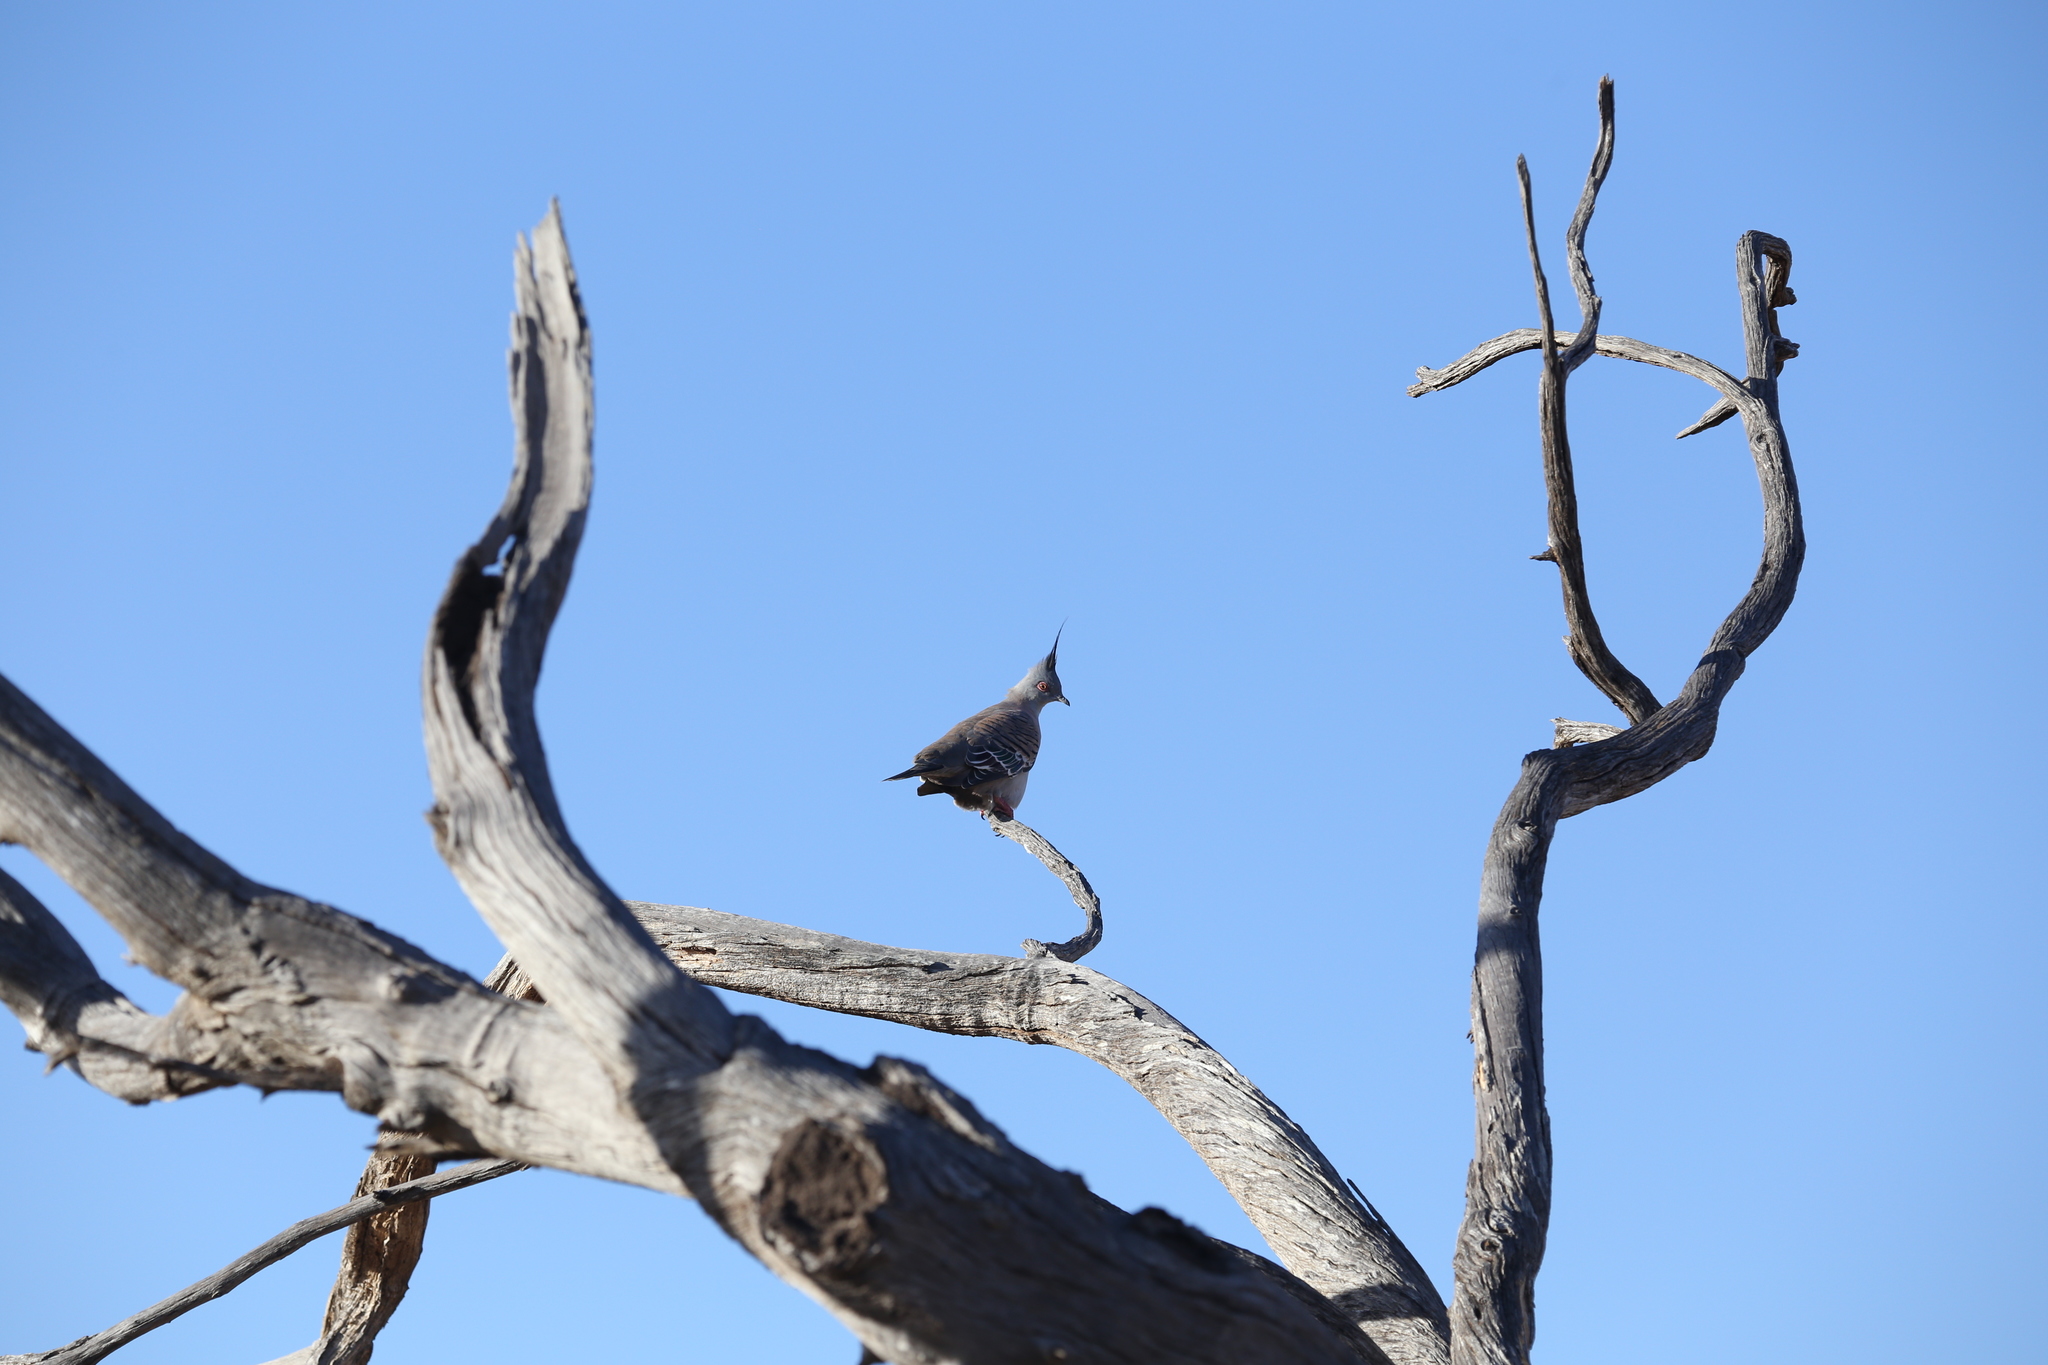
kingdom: Animalia
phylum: Chordata
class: Aves
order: Columbiformes
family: Columbidae
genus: Ocyphaps
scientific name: Ocyphaps lophotes
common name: Crested pigeon
